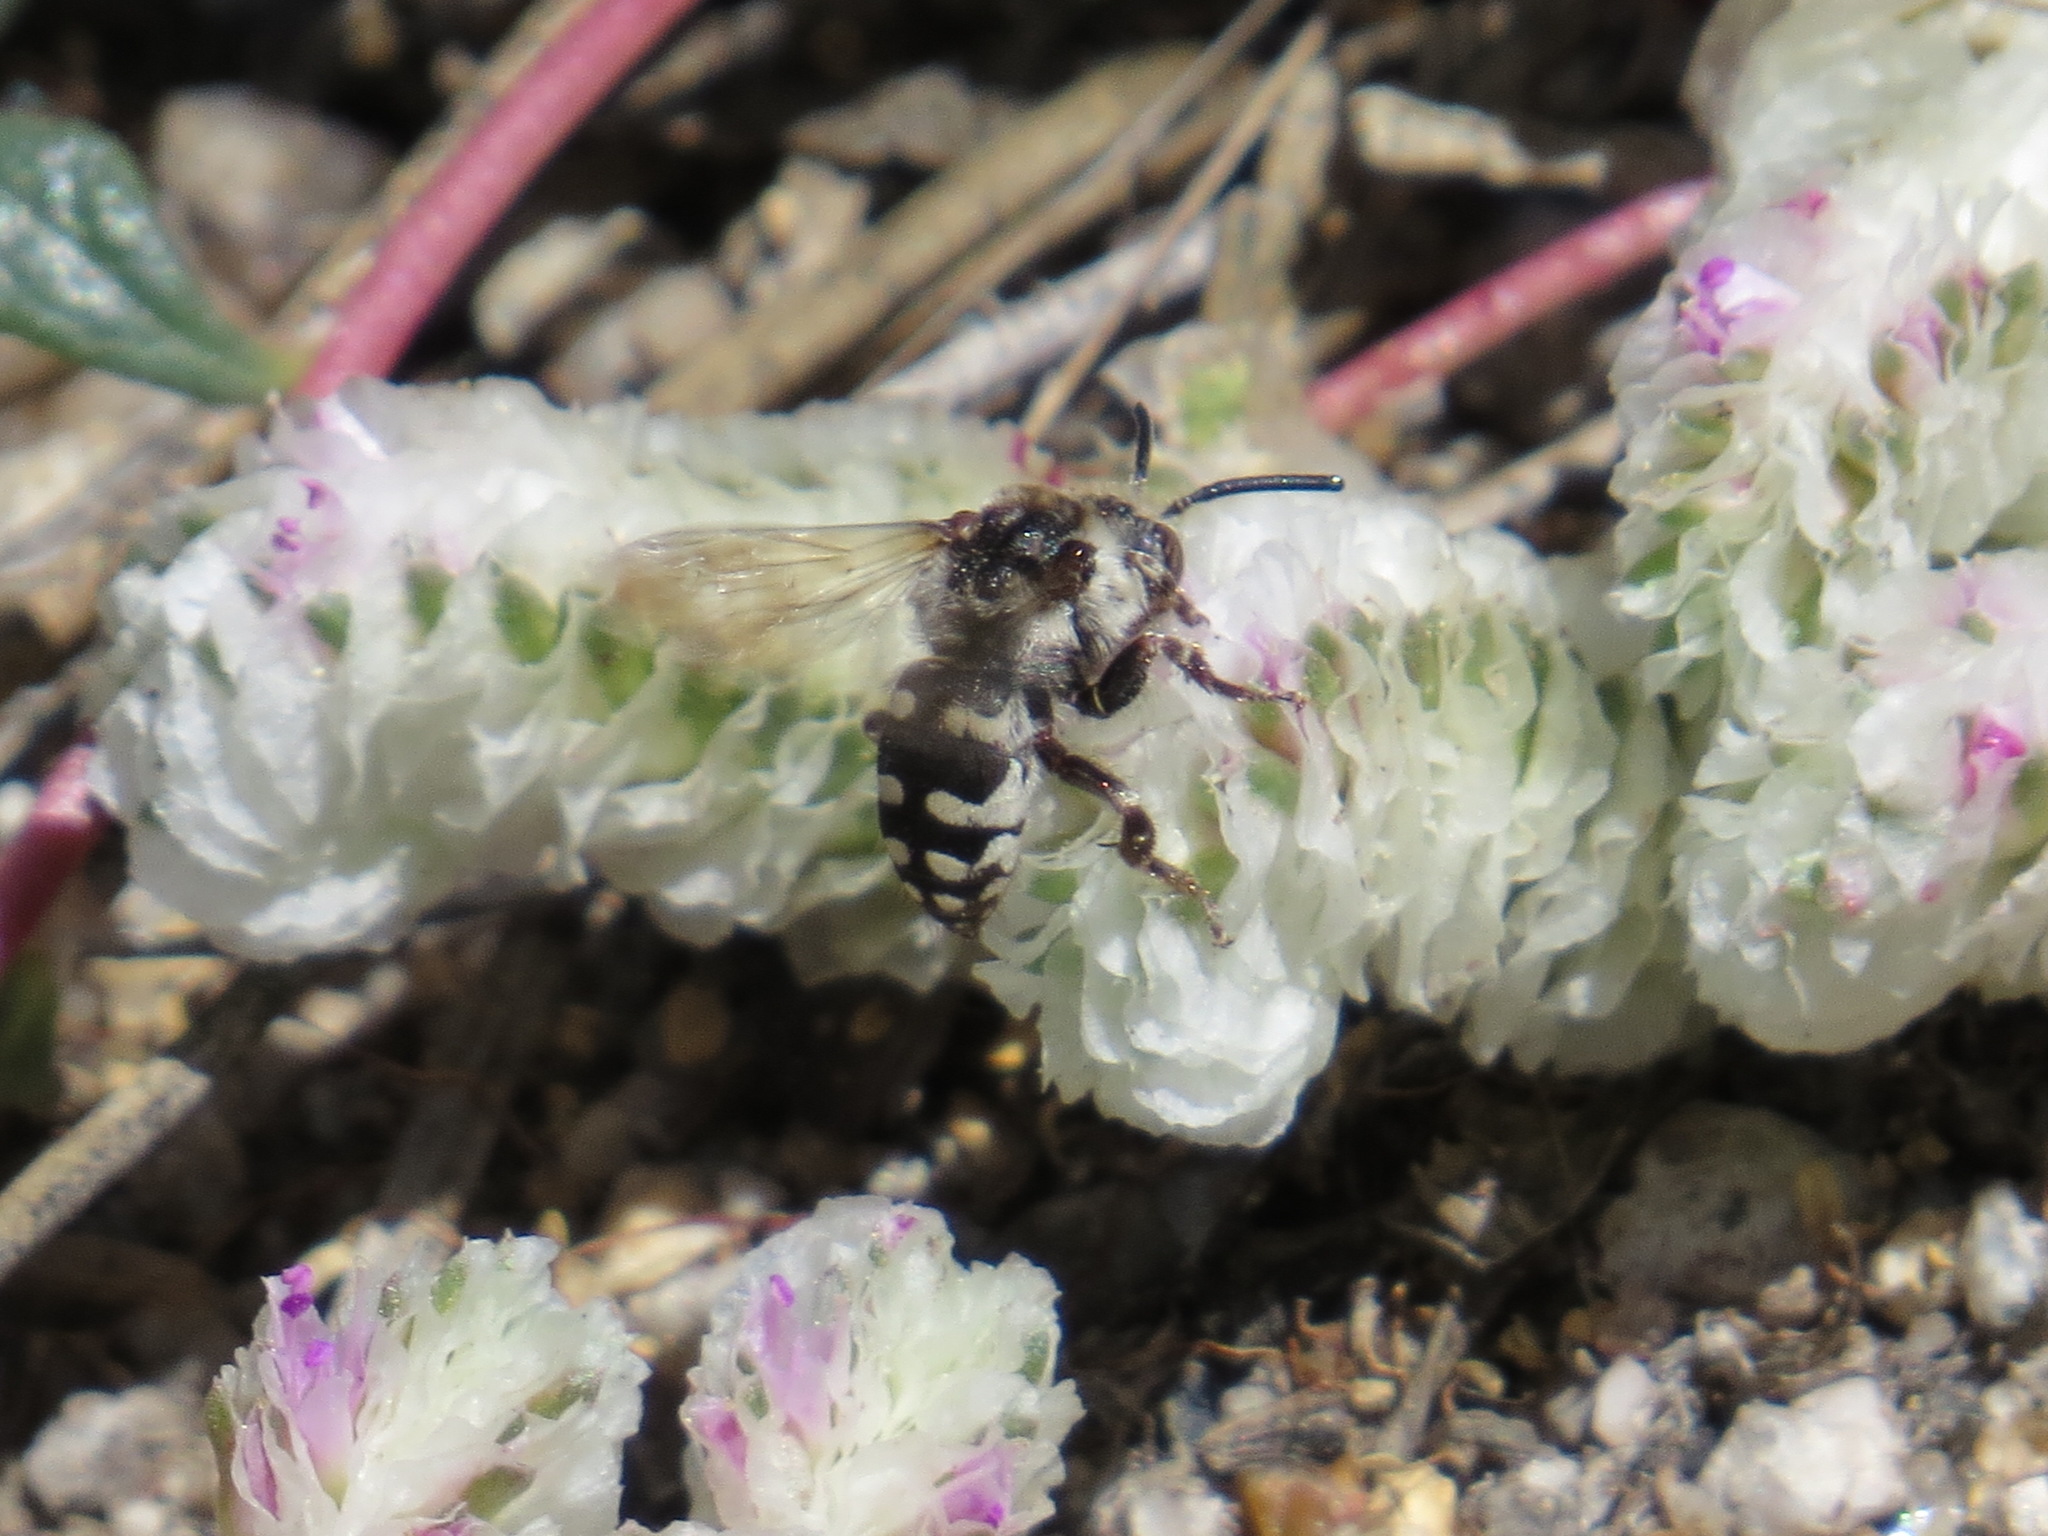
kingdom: Animalia
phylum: Arthropoda
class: Insecta
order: Hymenoptera
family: Apidae
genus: Brachymelecta
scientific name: Brachymelecta californica
